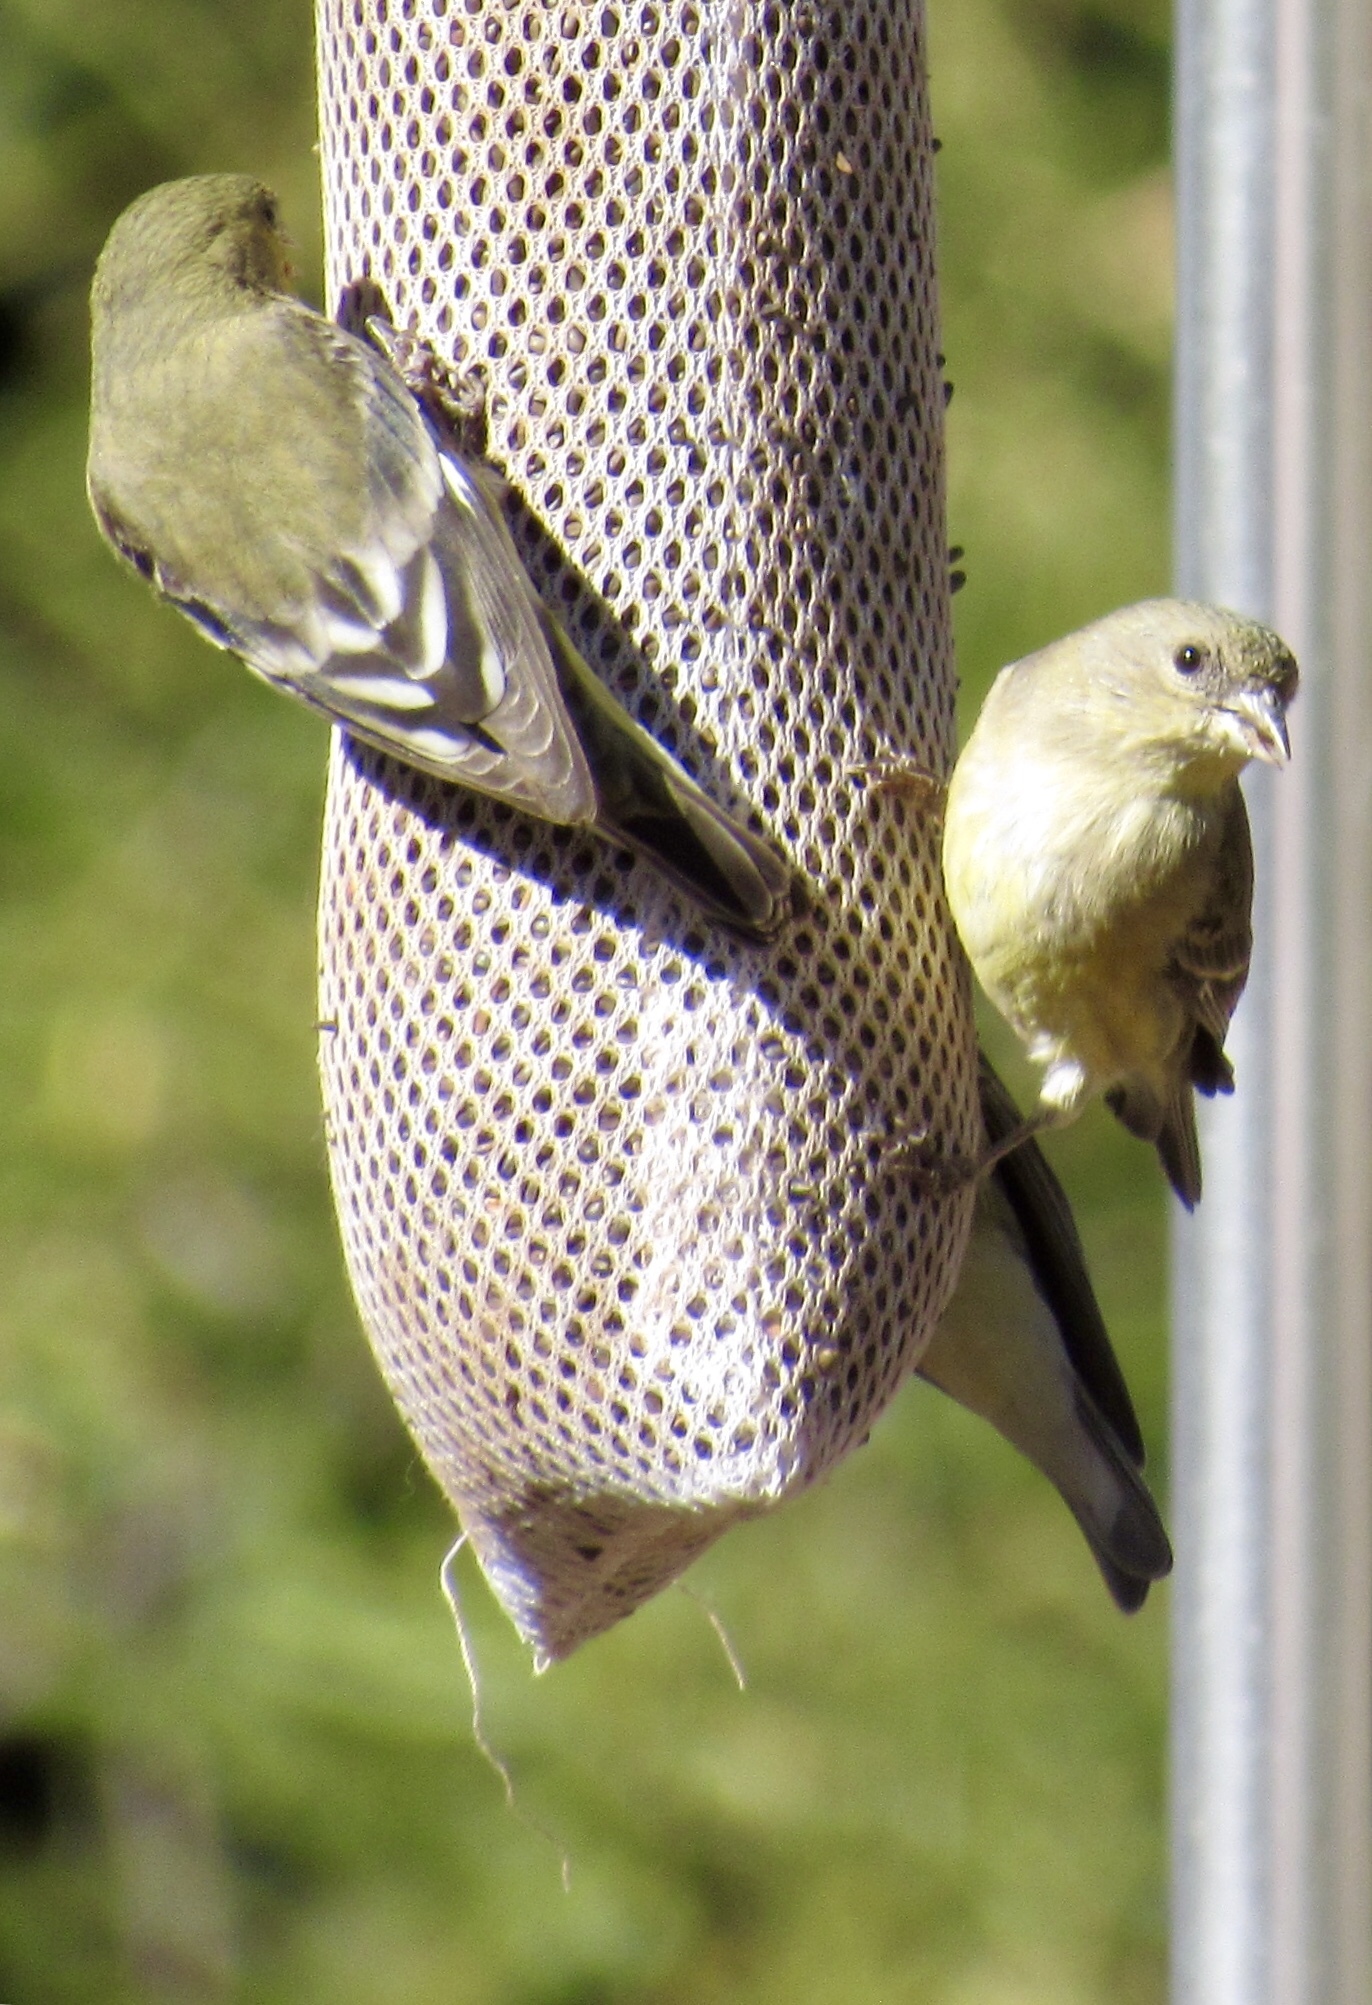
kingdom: Animalia
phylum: Chordata
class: Aves
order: Passeriformes
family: Fringillidae
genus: Spinus
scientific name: Spinus psaltria
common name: Lesser goldfinch
